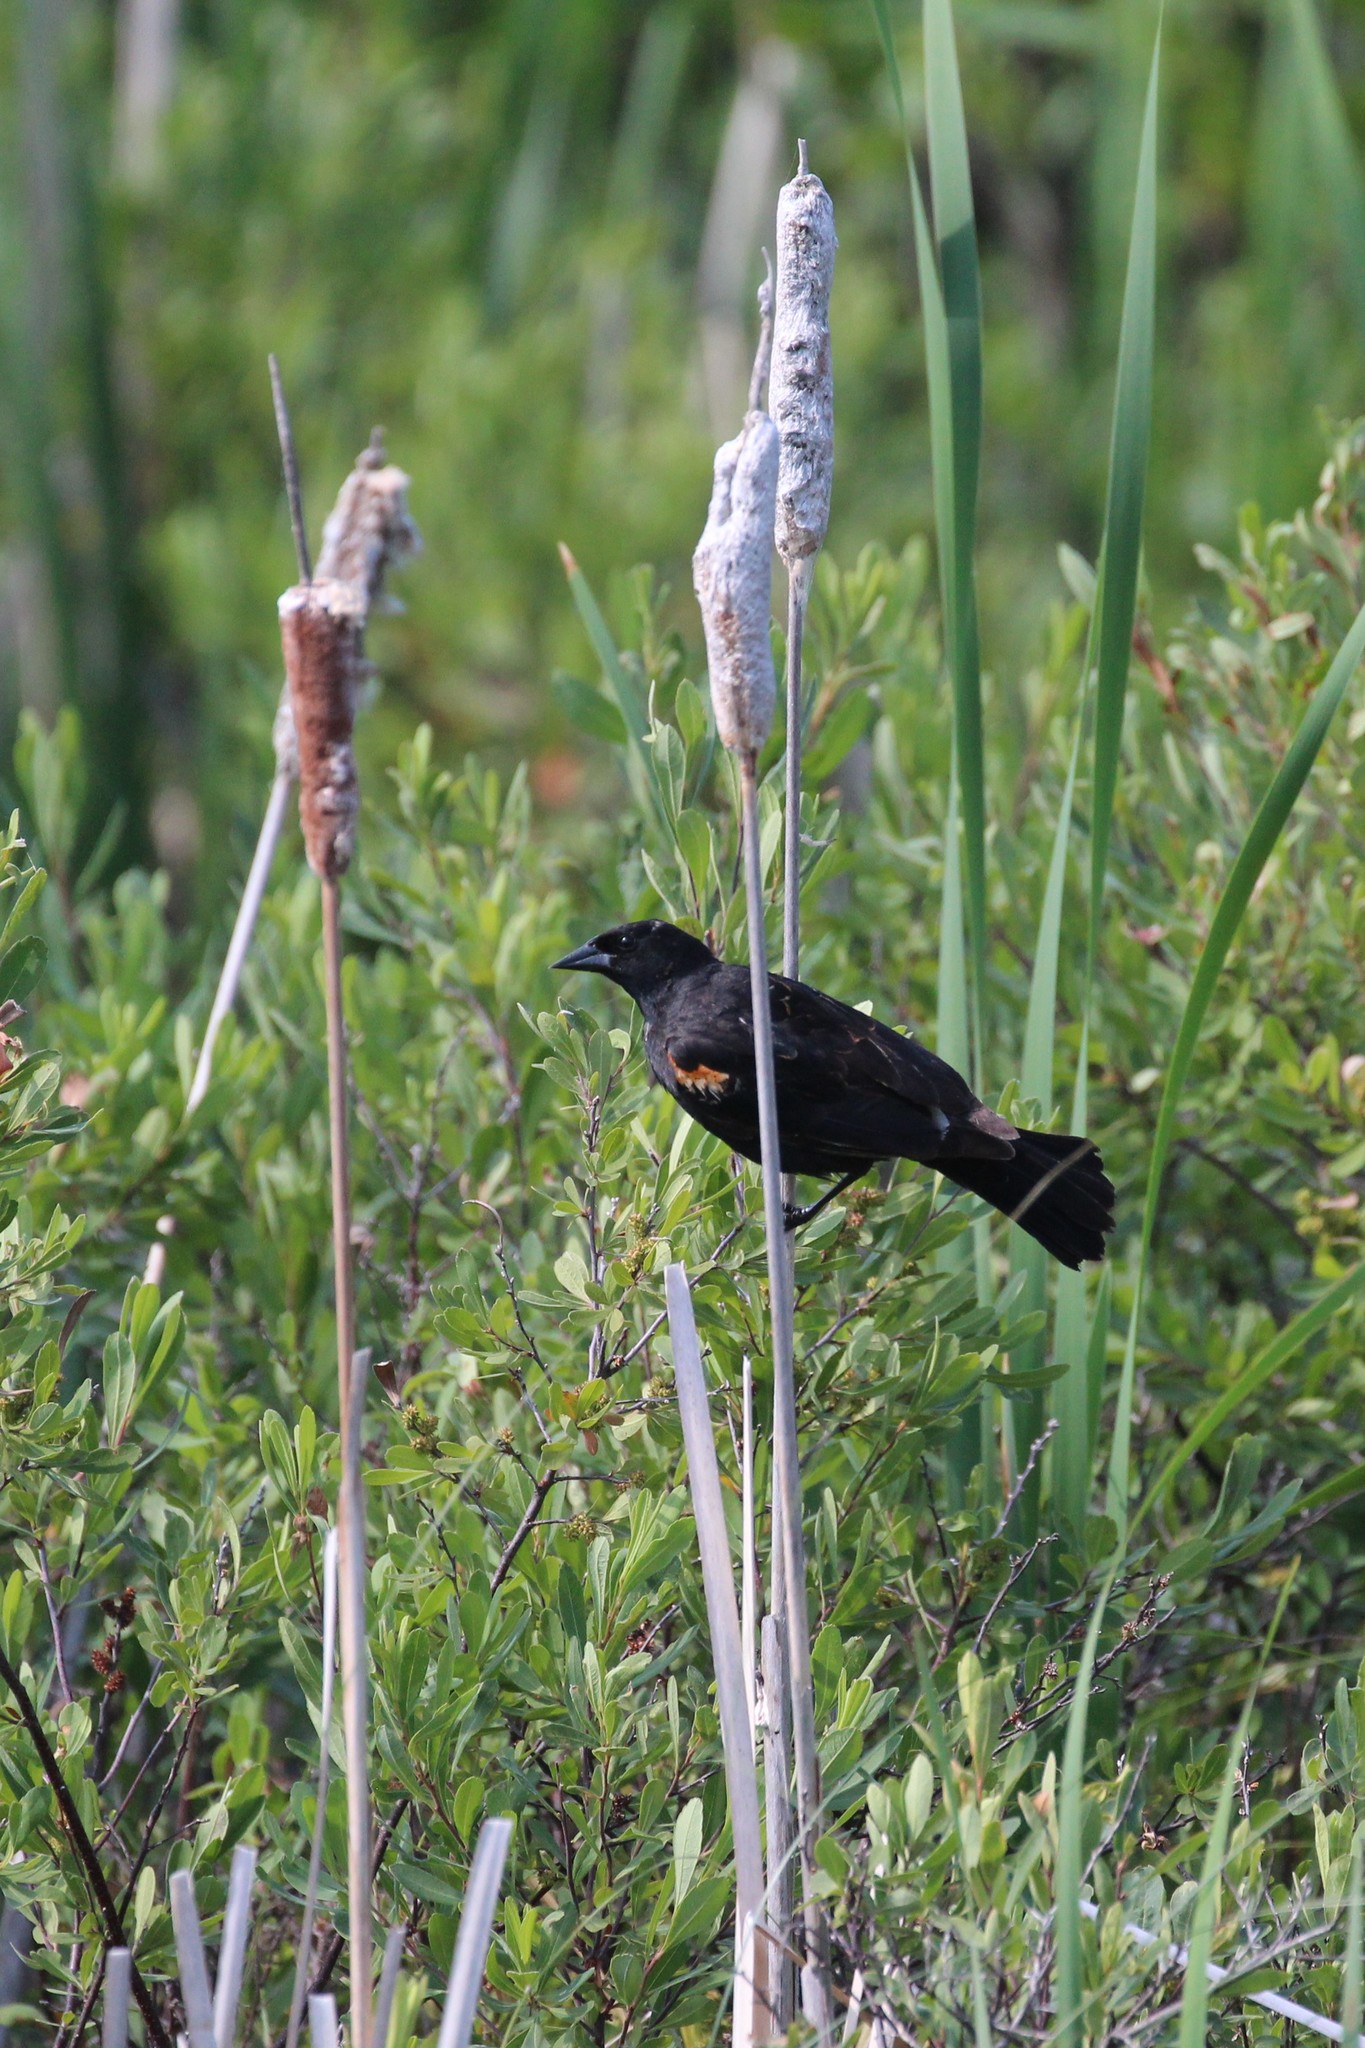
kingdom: Animalia
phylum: Chordata
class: Aves
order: Passeriformes
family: Icteridae
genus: Agelaius
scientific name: Agelaius phoeniceus
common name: Red-winged blackbird
